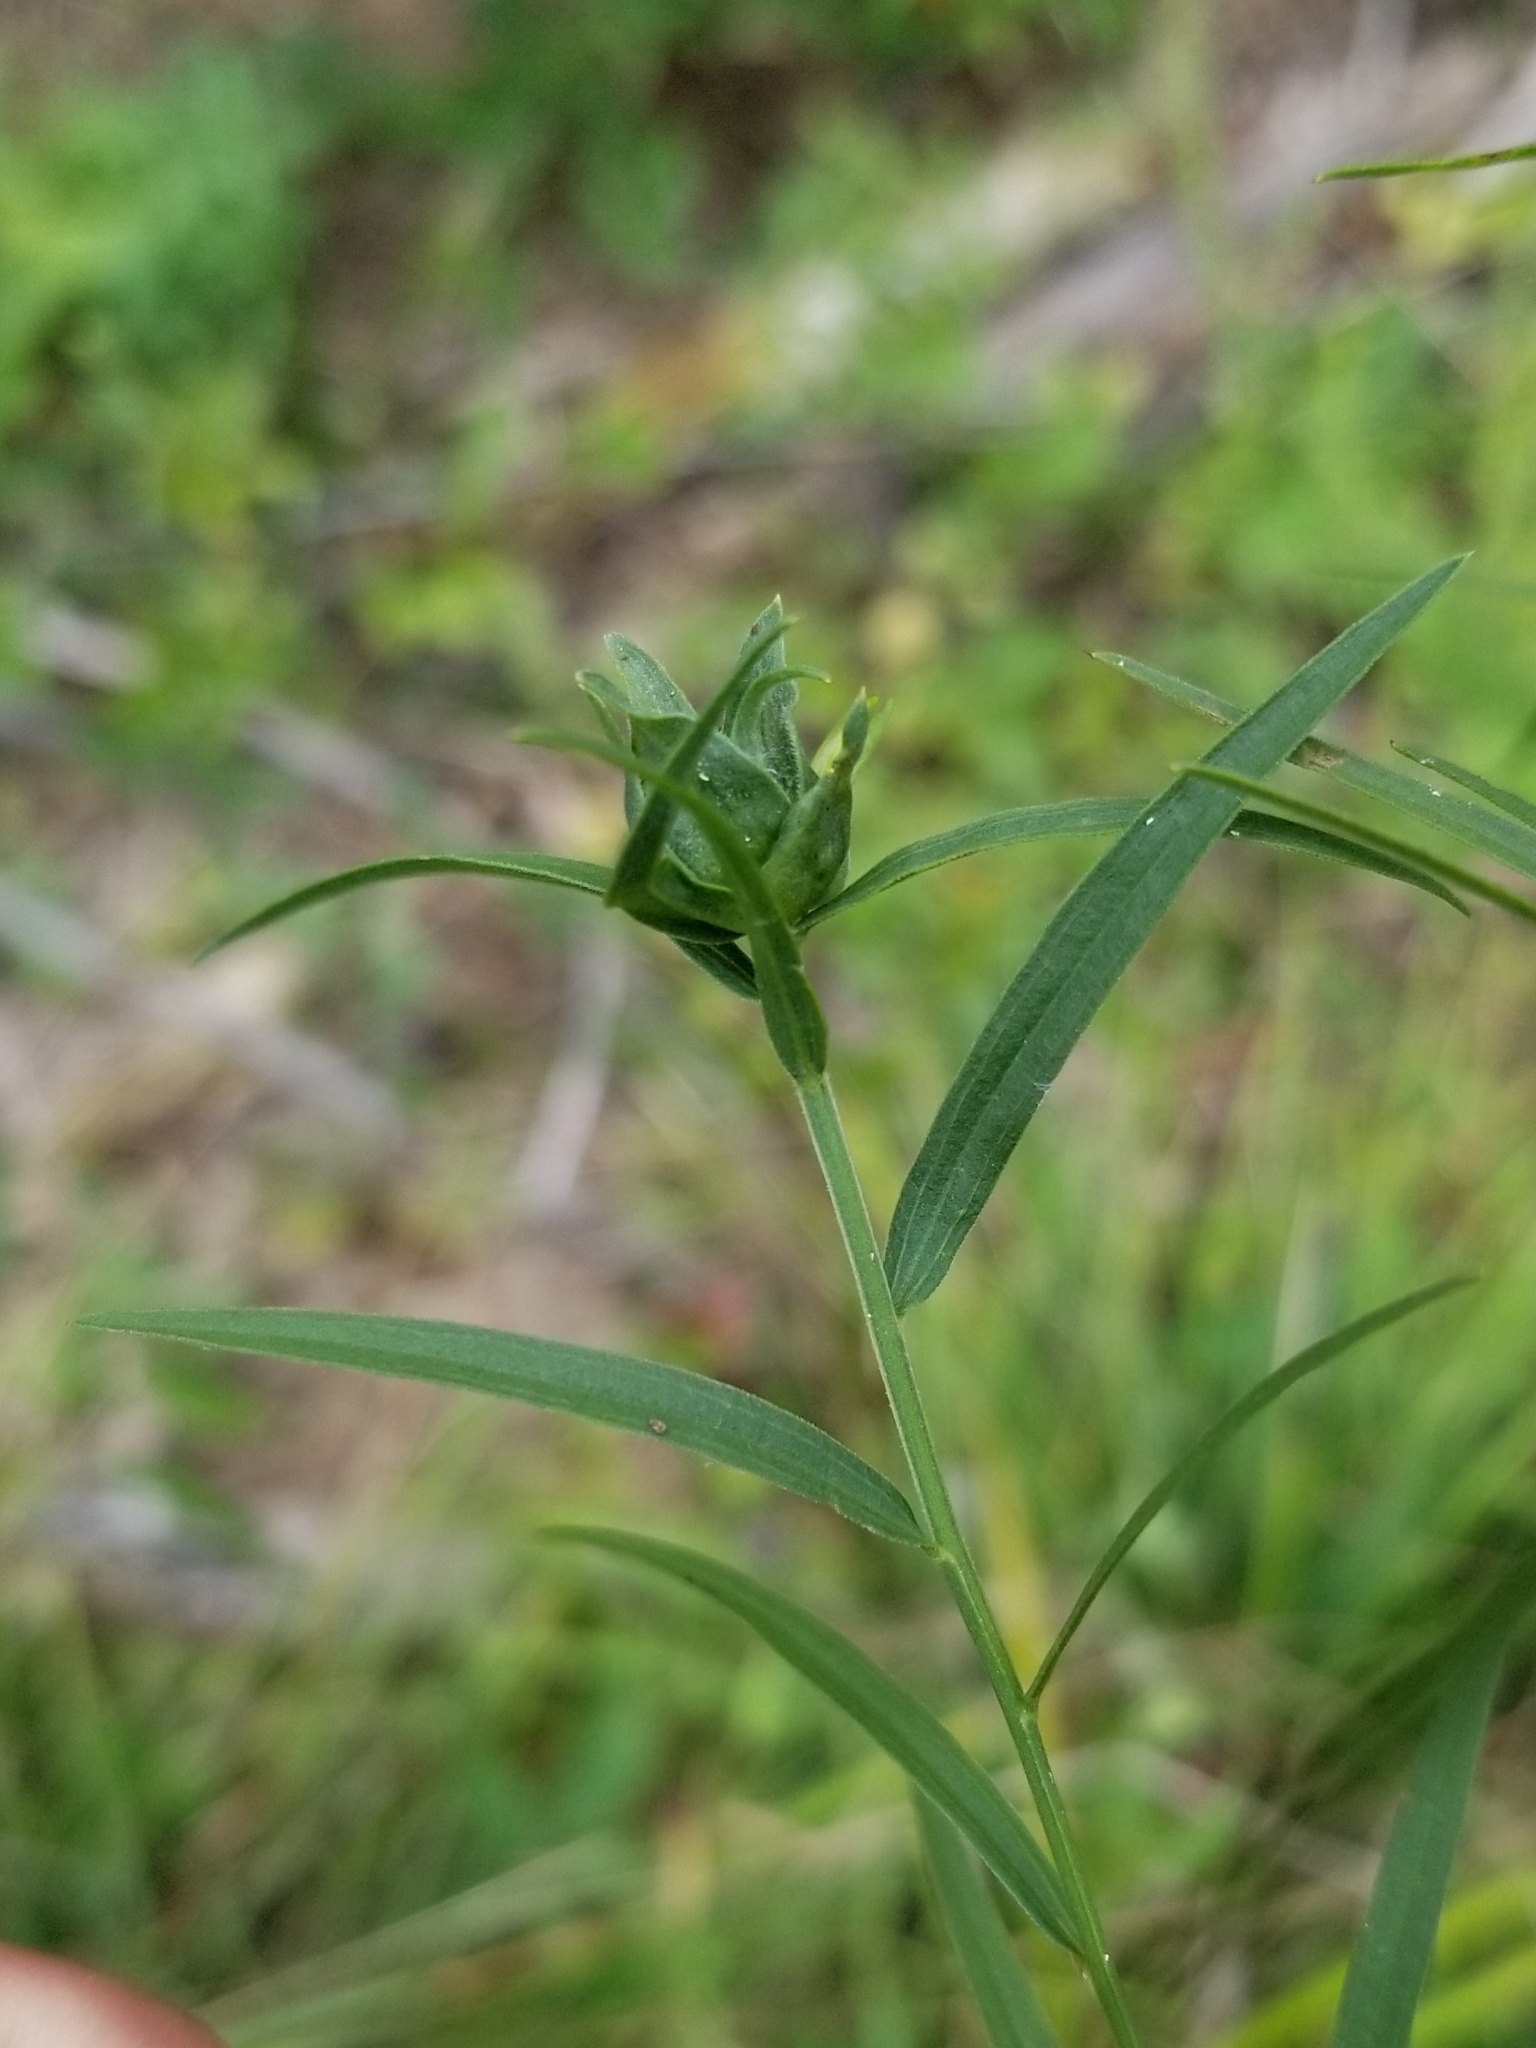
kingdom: Animalia
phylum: Arthropoda
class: Insecta
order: Diptera
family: Cecidomyiidae
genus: Asphondylia
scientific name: Asphondylia pseudorosa
